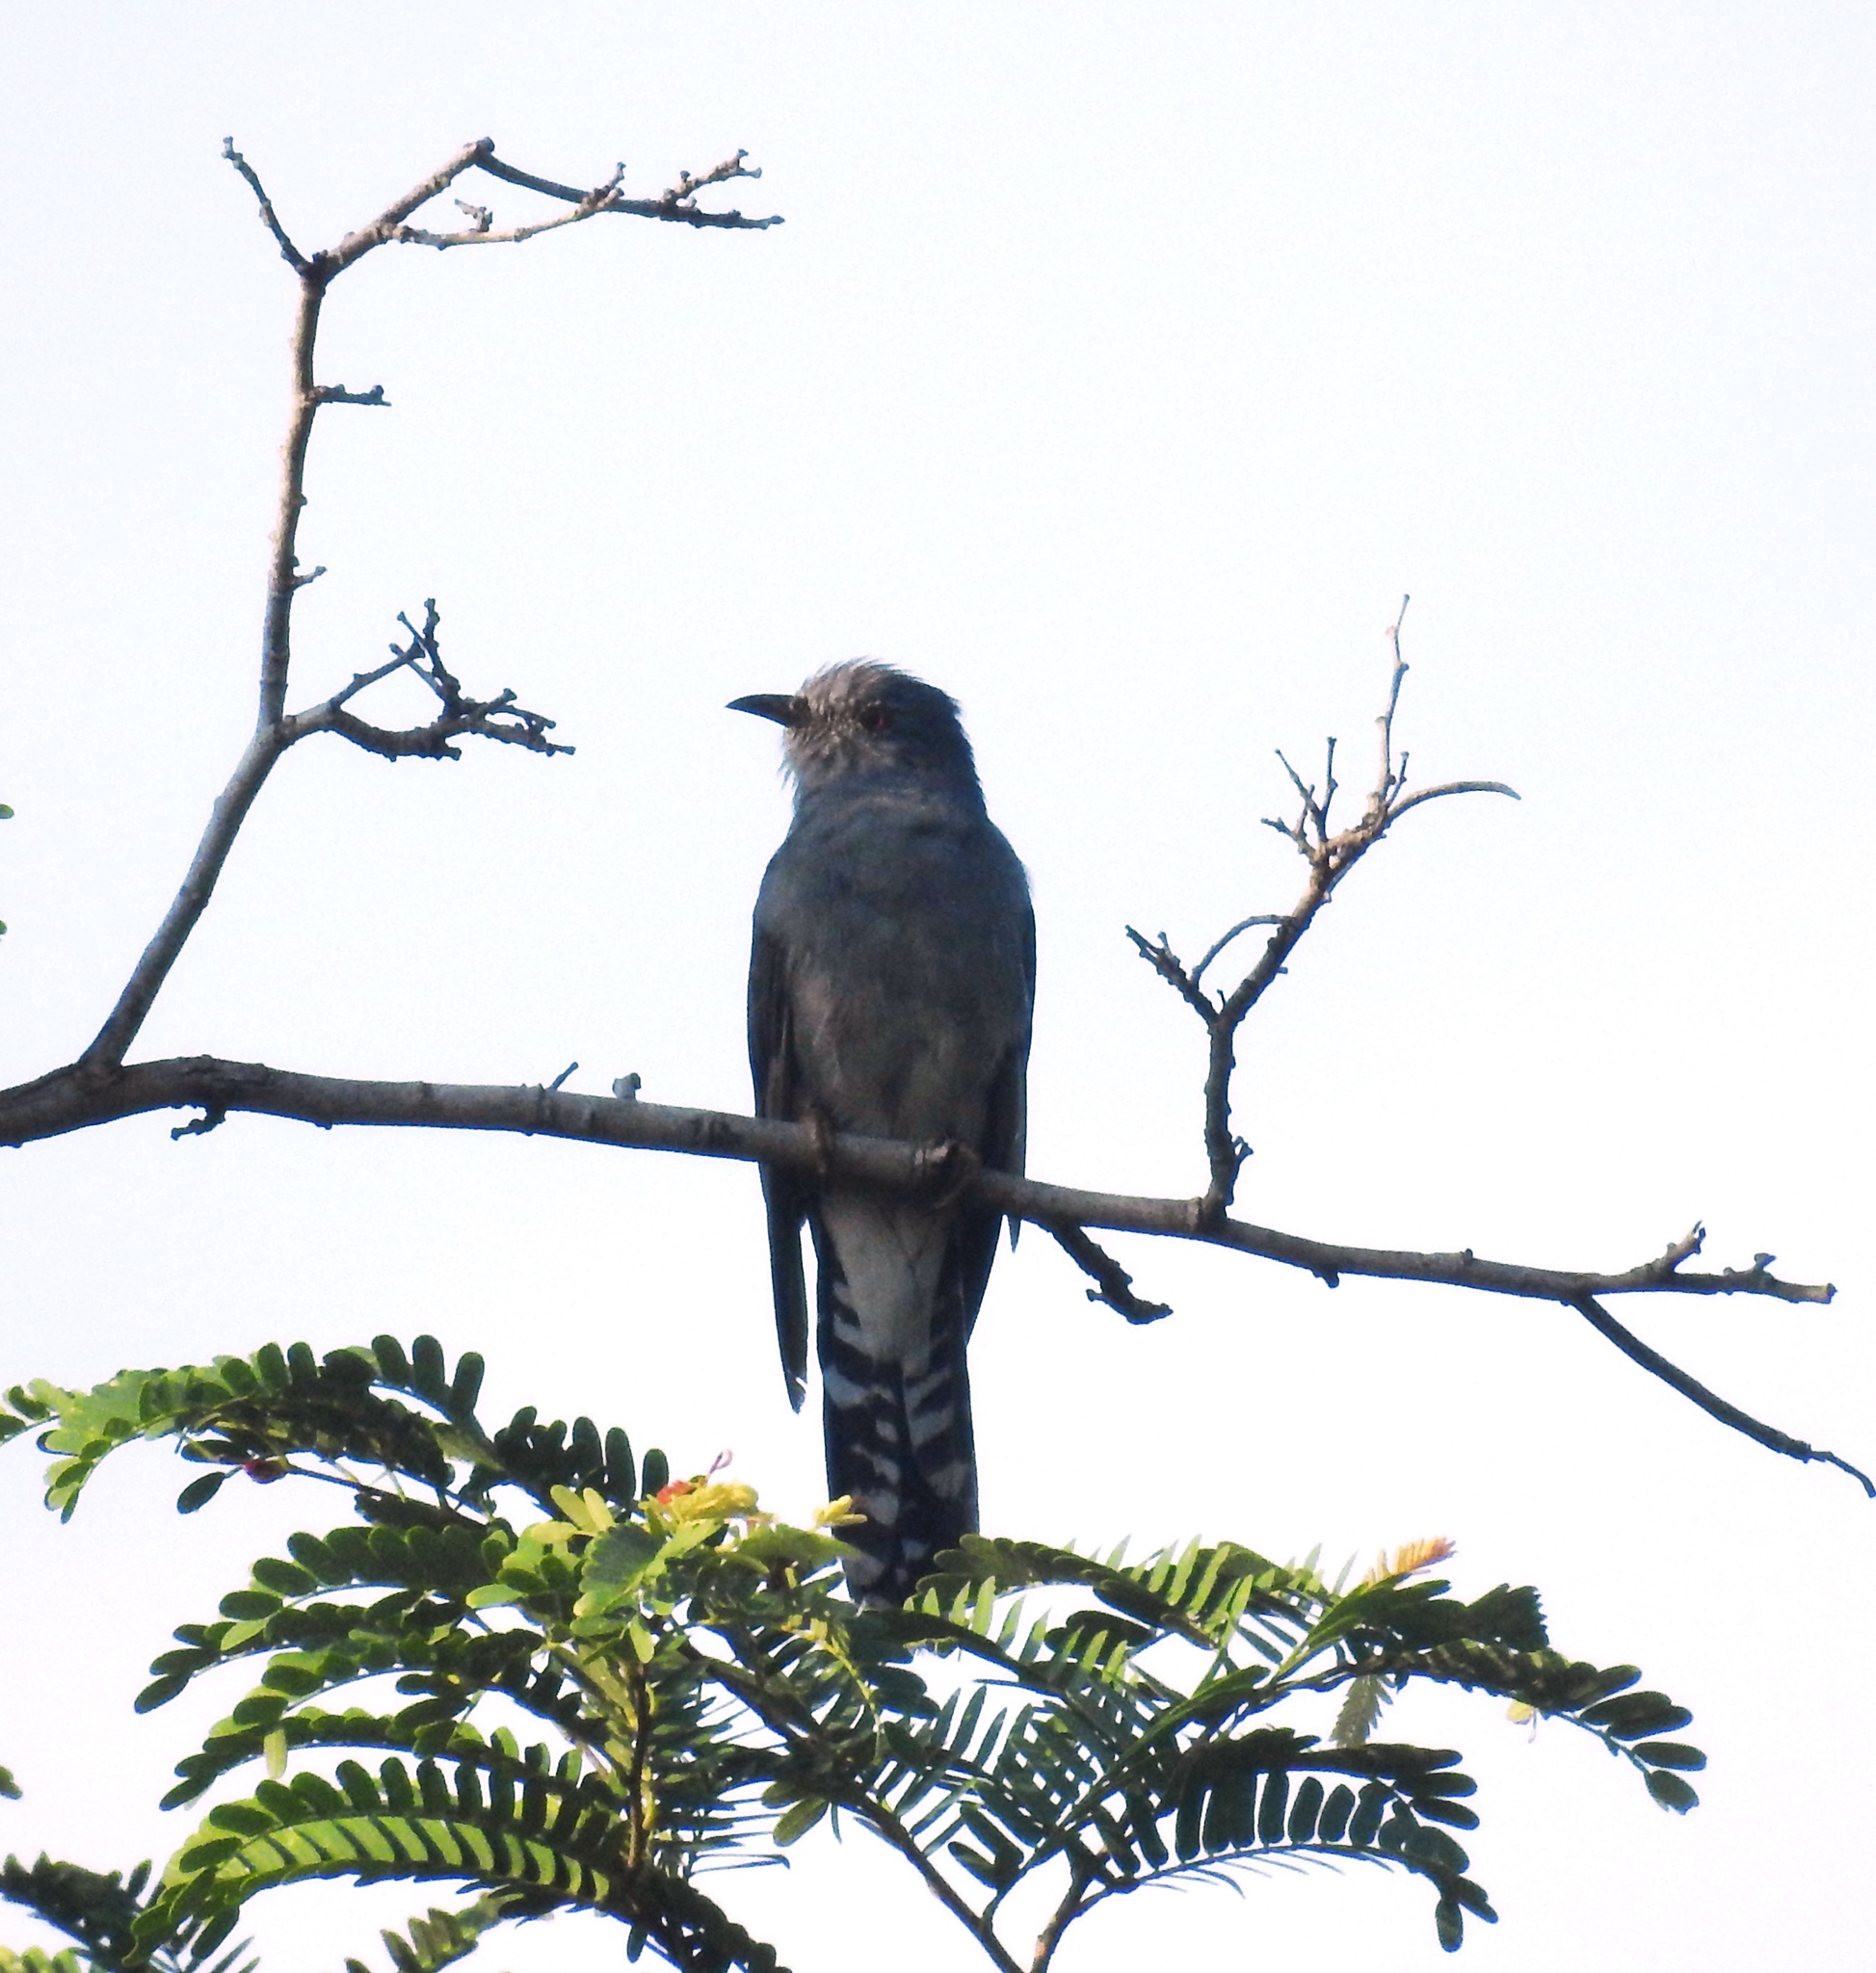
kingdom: Animalia
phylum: Chordata
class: Aves
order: Cuculiformes
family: Cuculidae
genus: Cacomantis
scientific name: Cacomantis passerinus
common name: Grey-bellied cuckoo
